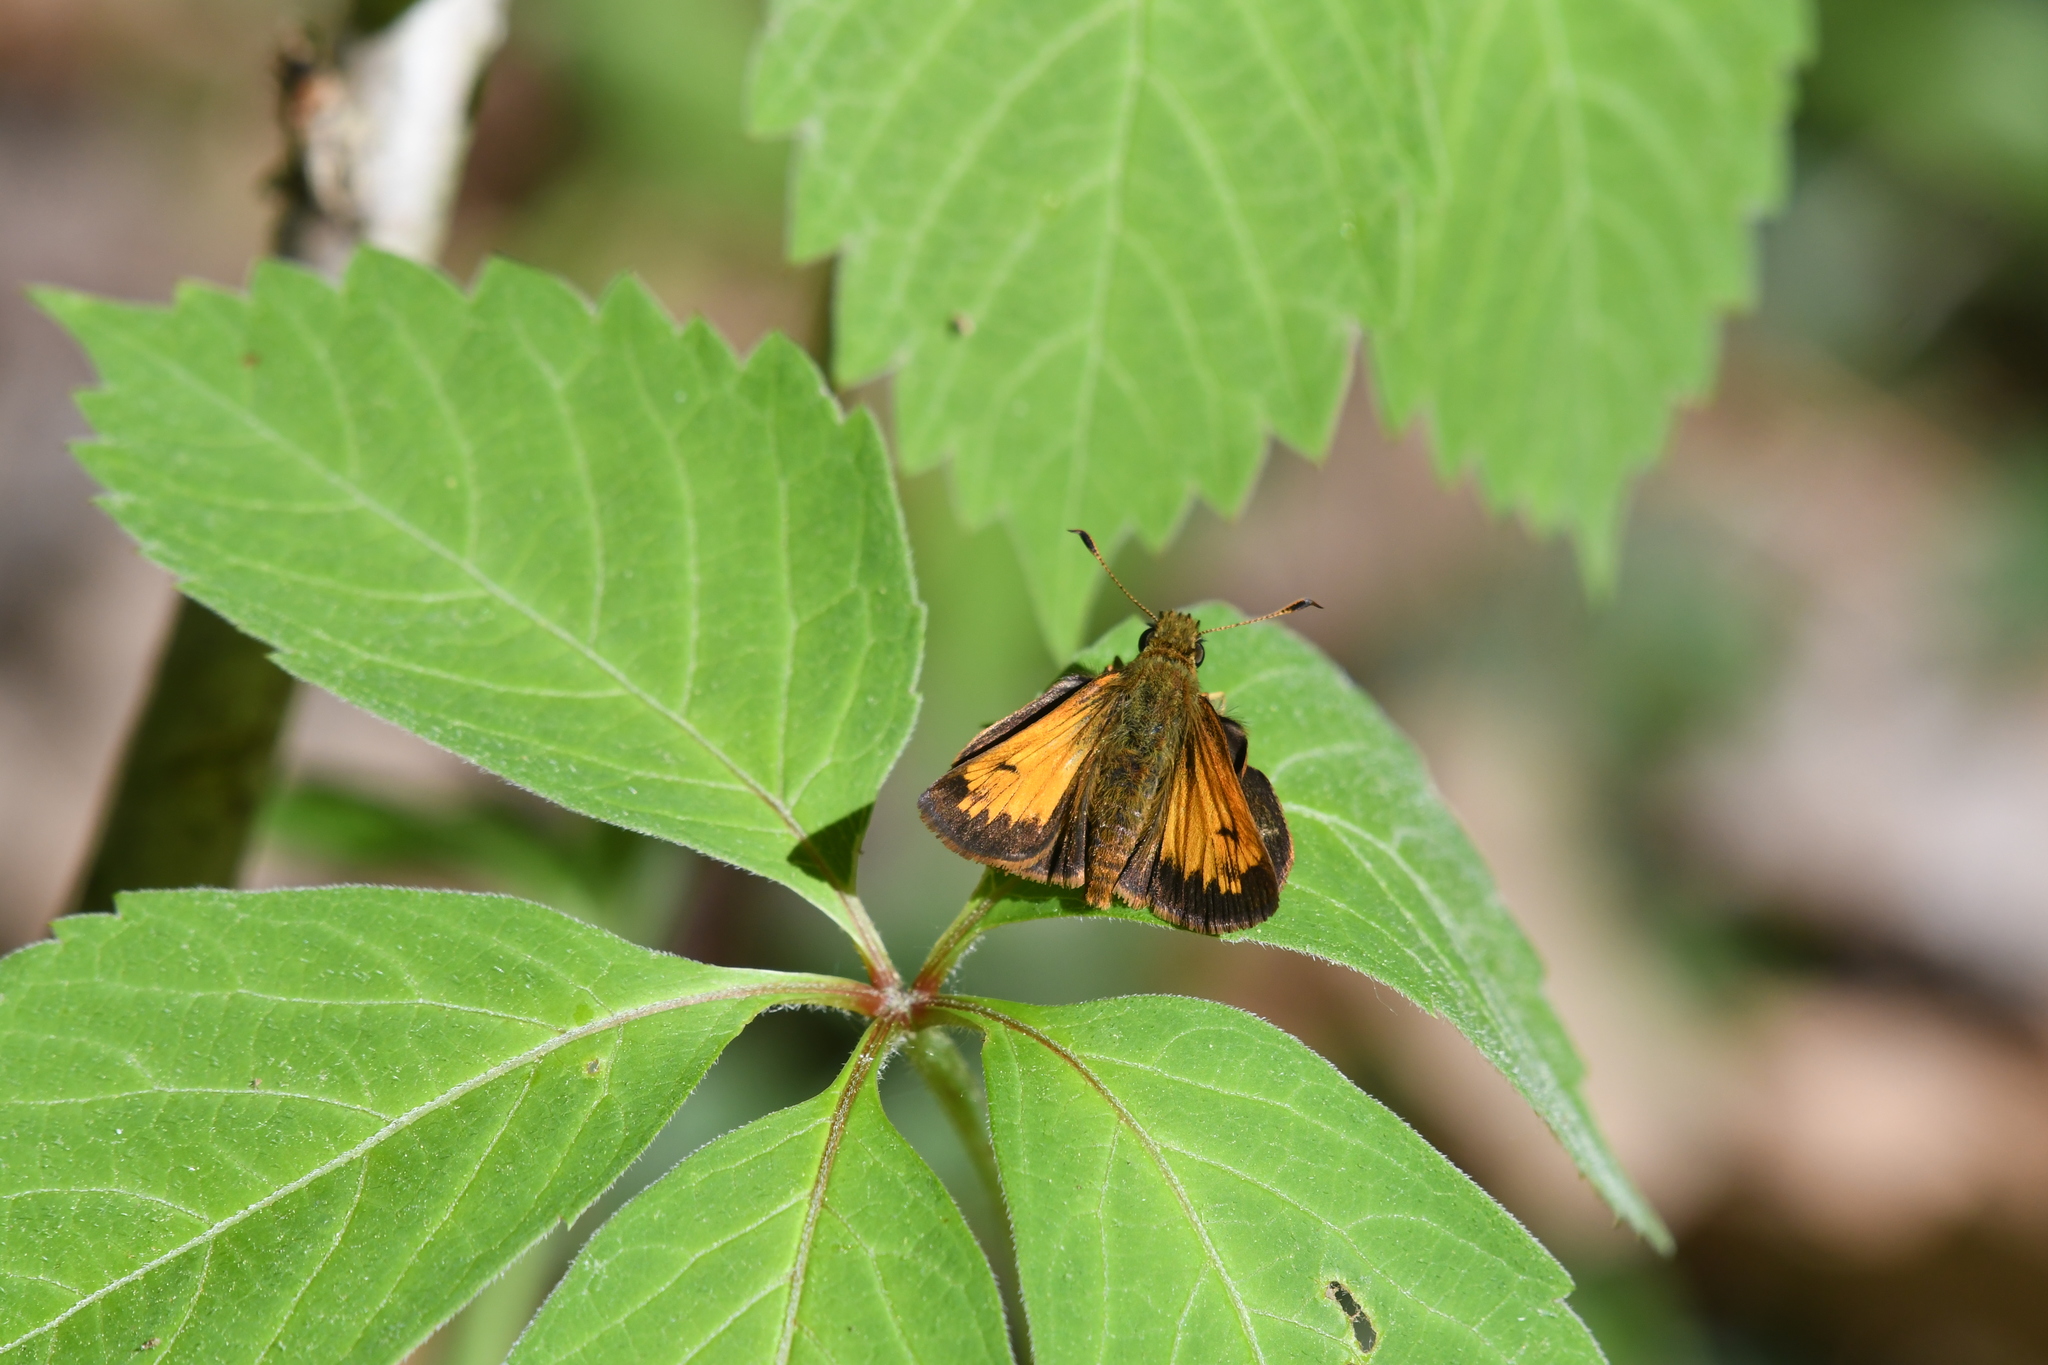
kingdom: Animalia
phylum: Arthropoda
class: Insecta
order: Lepidoptera
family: Hesperiidae
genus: Lon
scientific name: Lon hobomok
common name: Hobomok skipper
